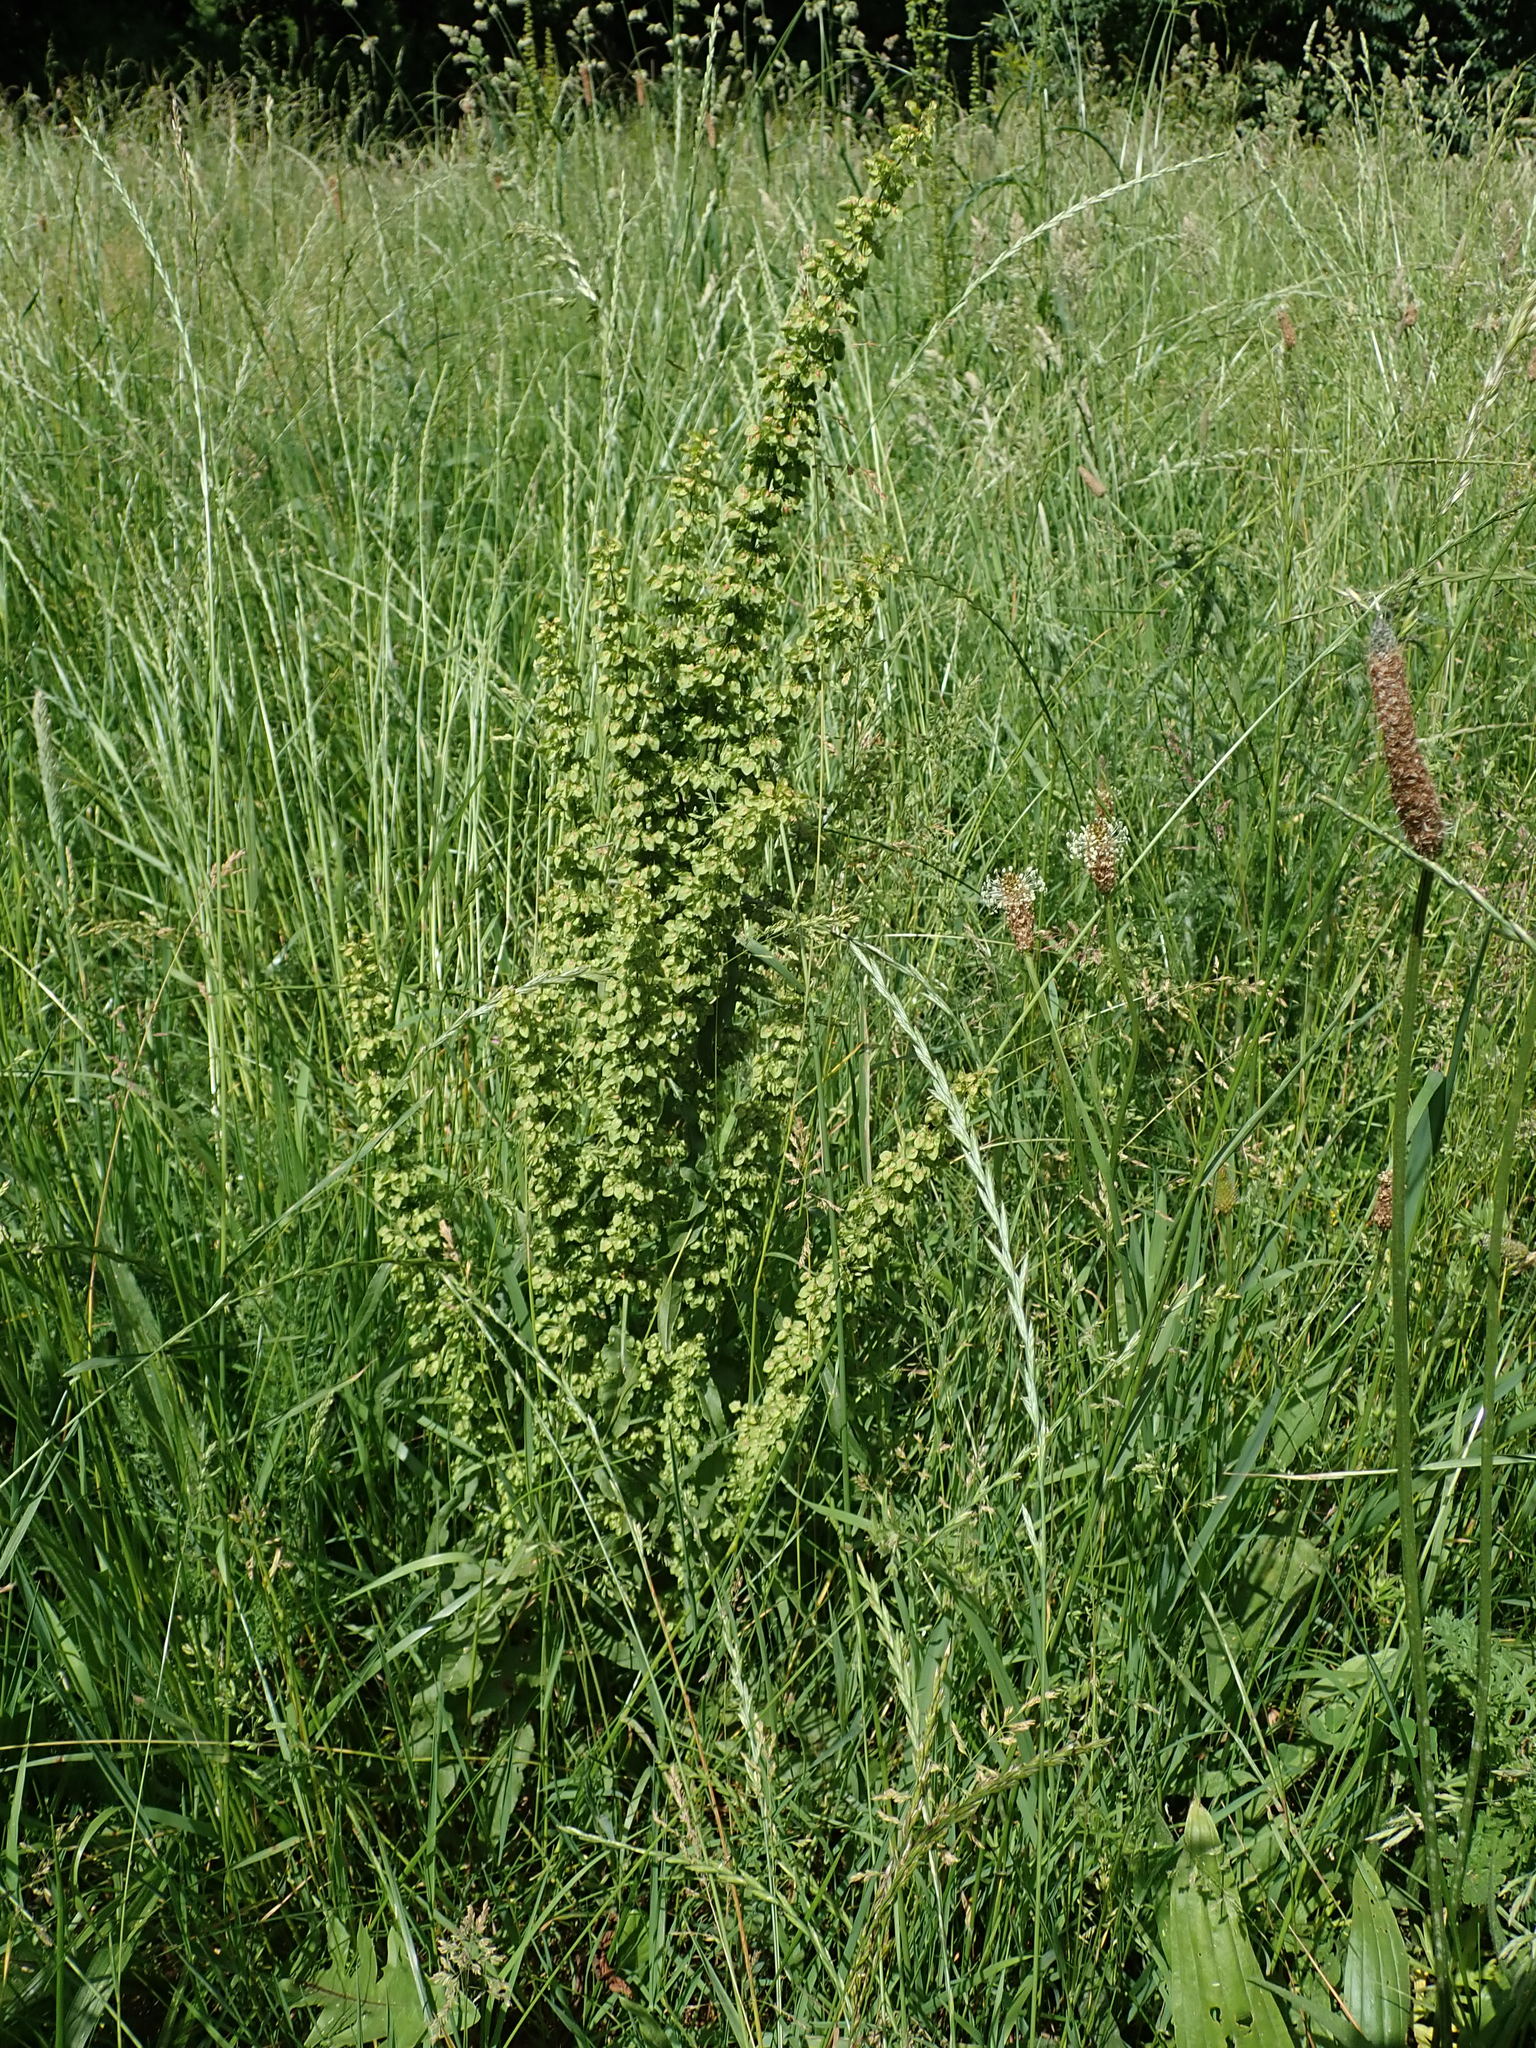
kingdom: Plantae
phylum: Tracheophyta
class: Magnoliopsida
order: Caryophyllales
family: Polygonaceae
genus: Rumex
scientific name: Rumex crispus
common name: Curled dock
